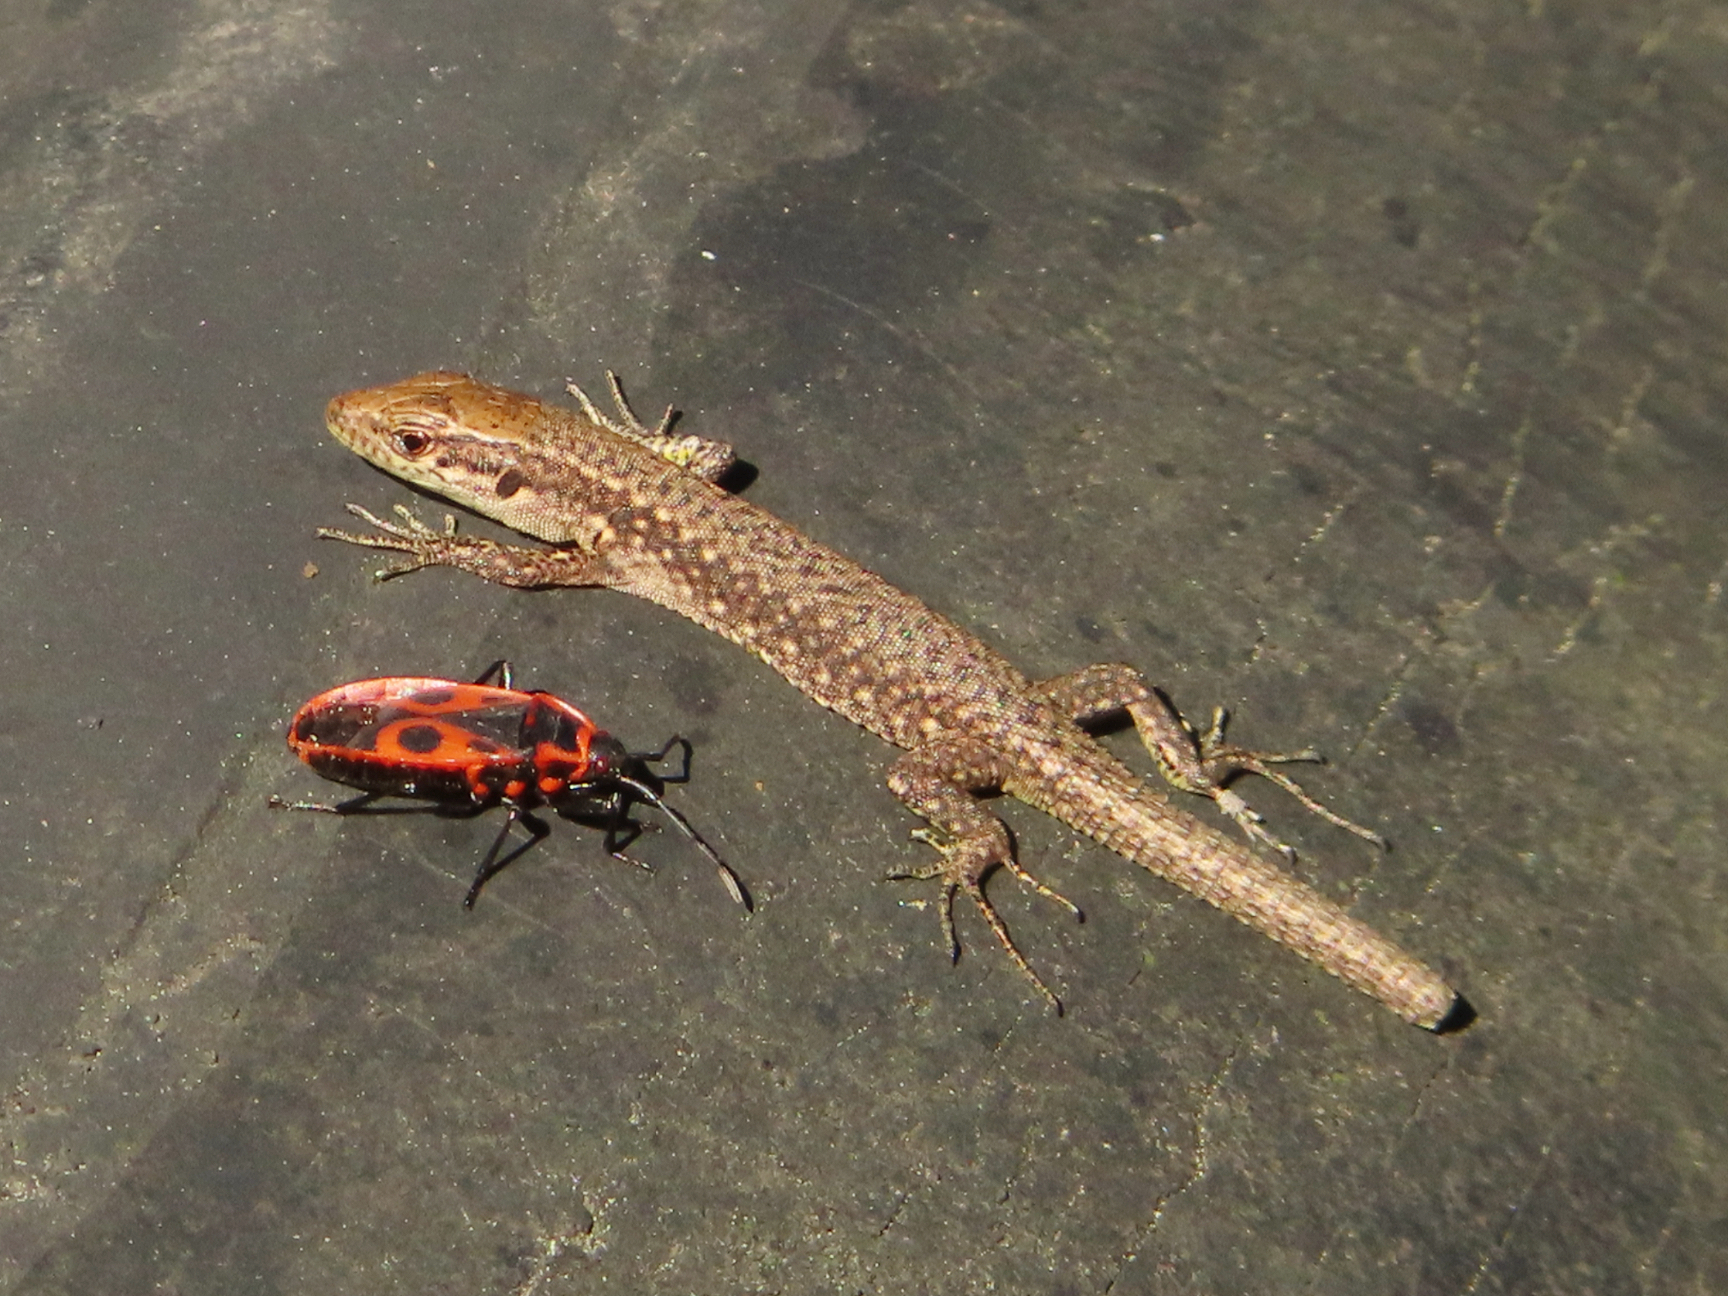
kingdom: Animalia
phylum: Chordata
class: Squamata
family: Lacertidae
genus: Darevskia
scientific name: Darevskia mixta
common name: Ajarian lizard
